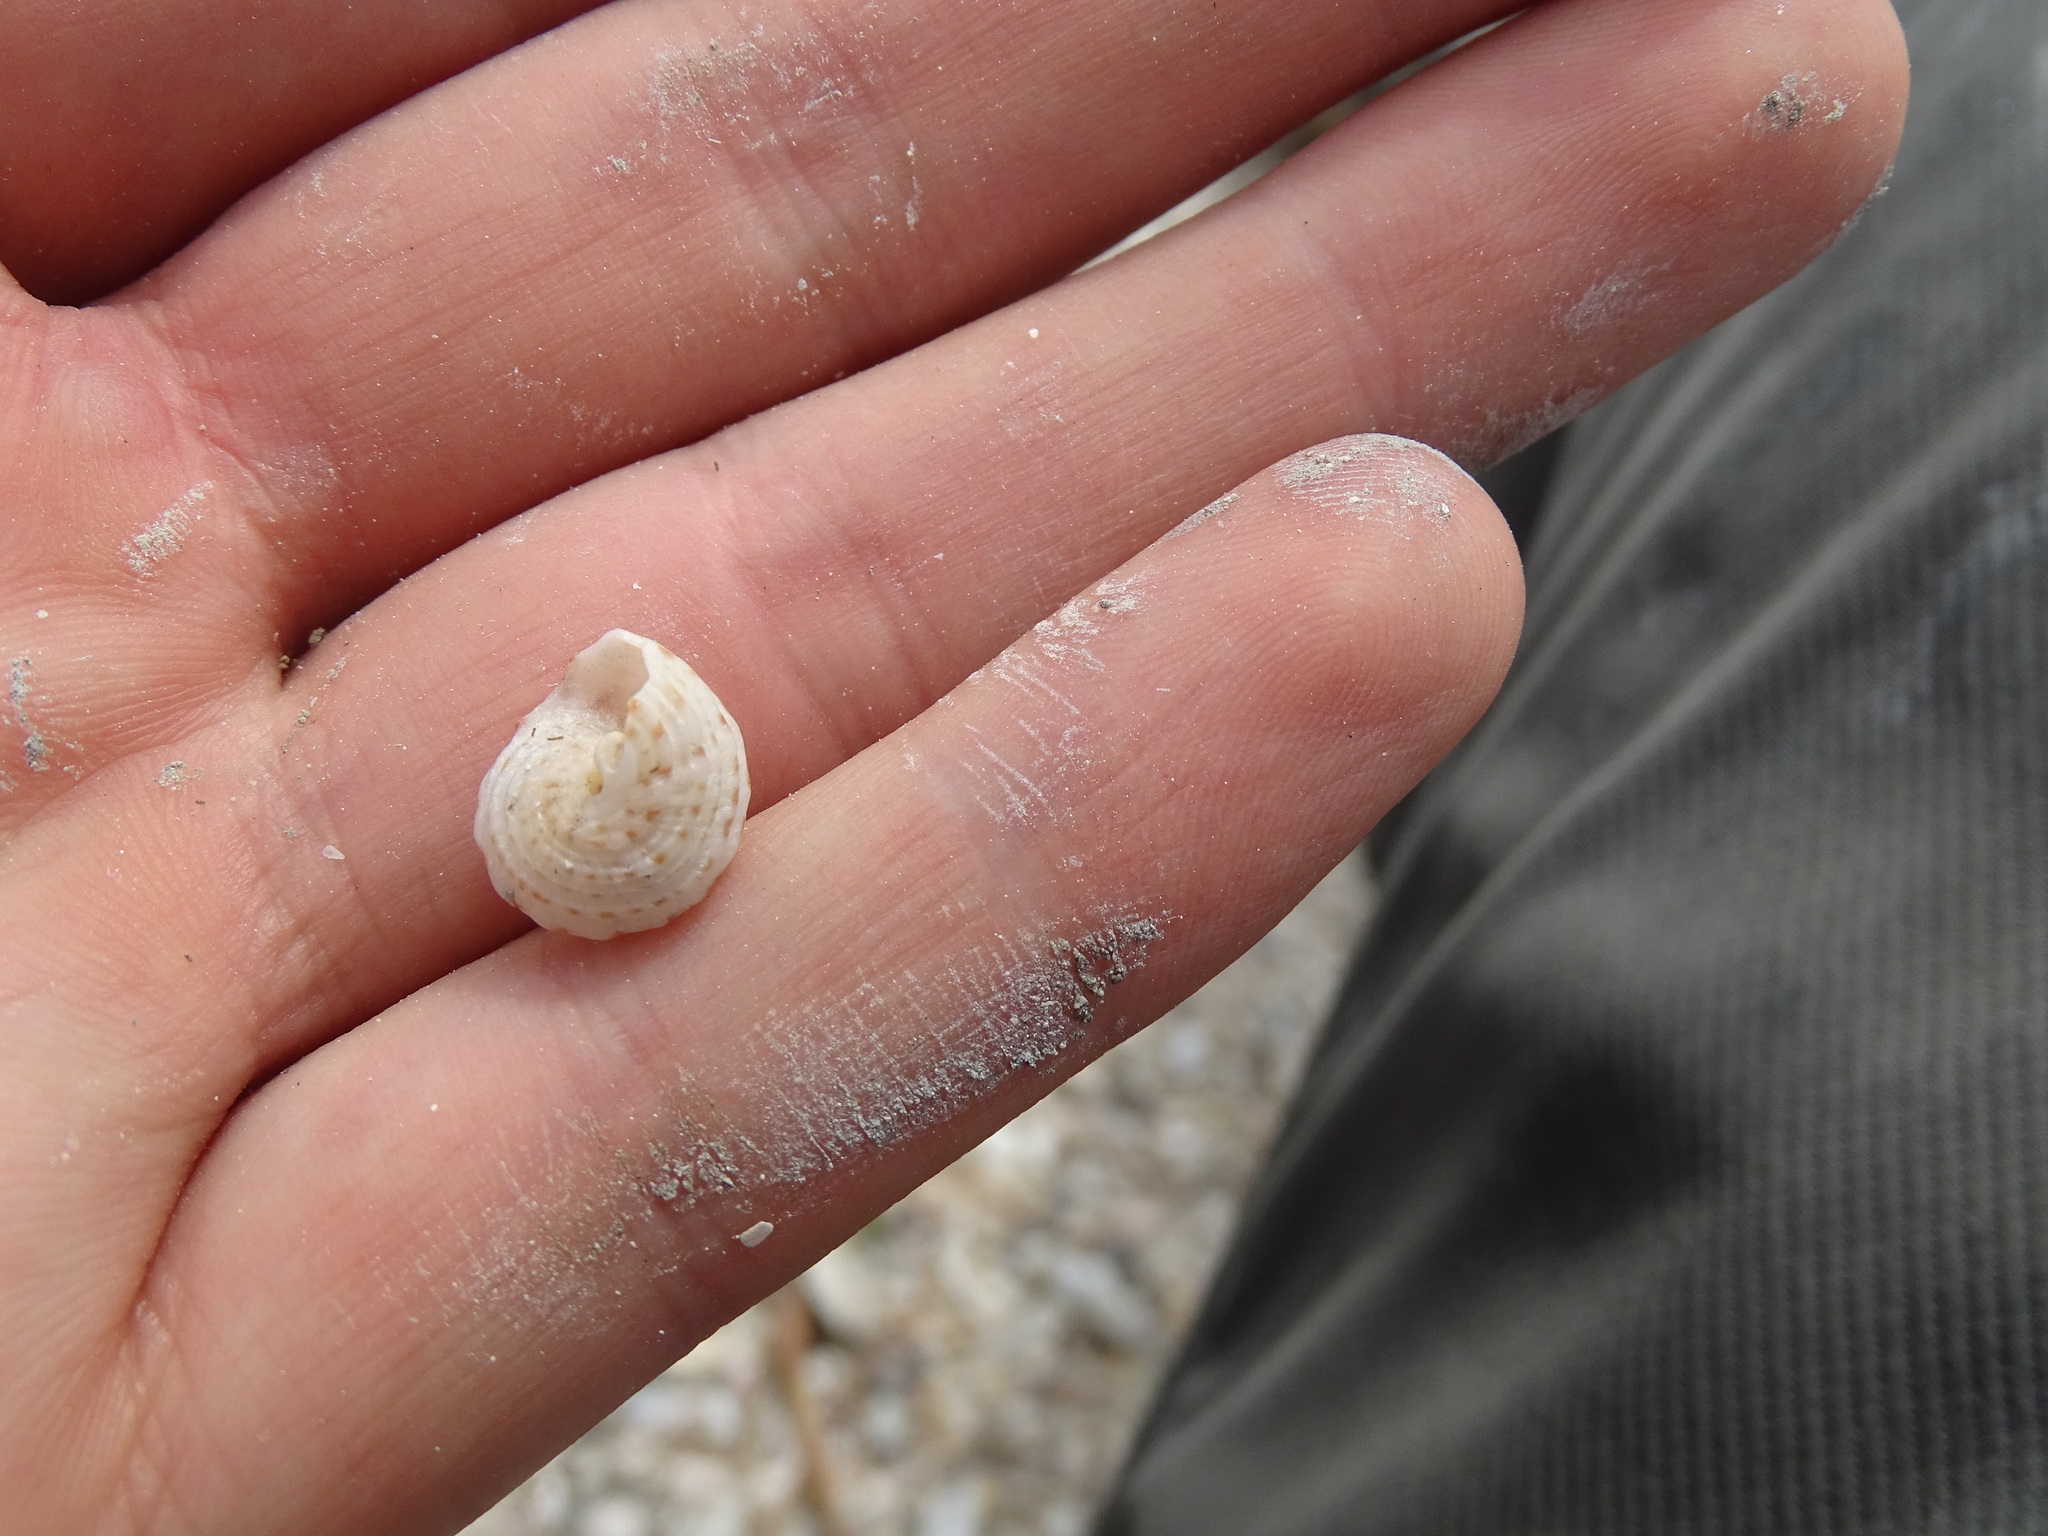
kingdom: Animalia
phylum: Mollusca
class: Gastropoda
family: Modulidae
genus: Modulus
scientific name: Modulus modulus
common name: Atlantic modulus
